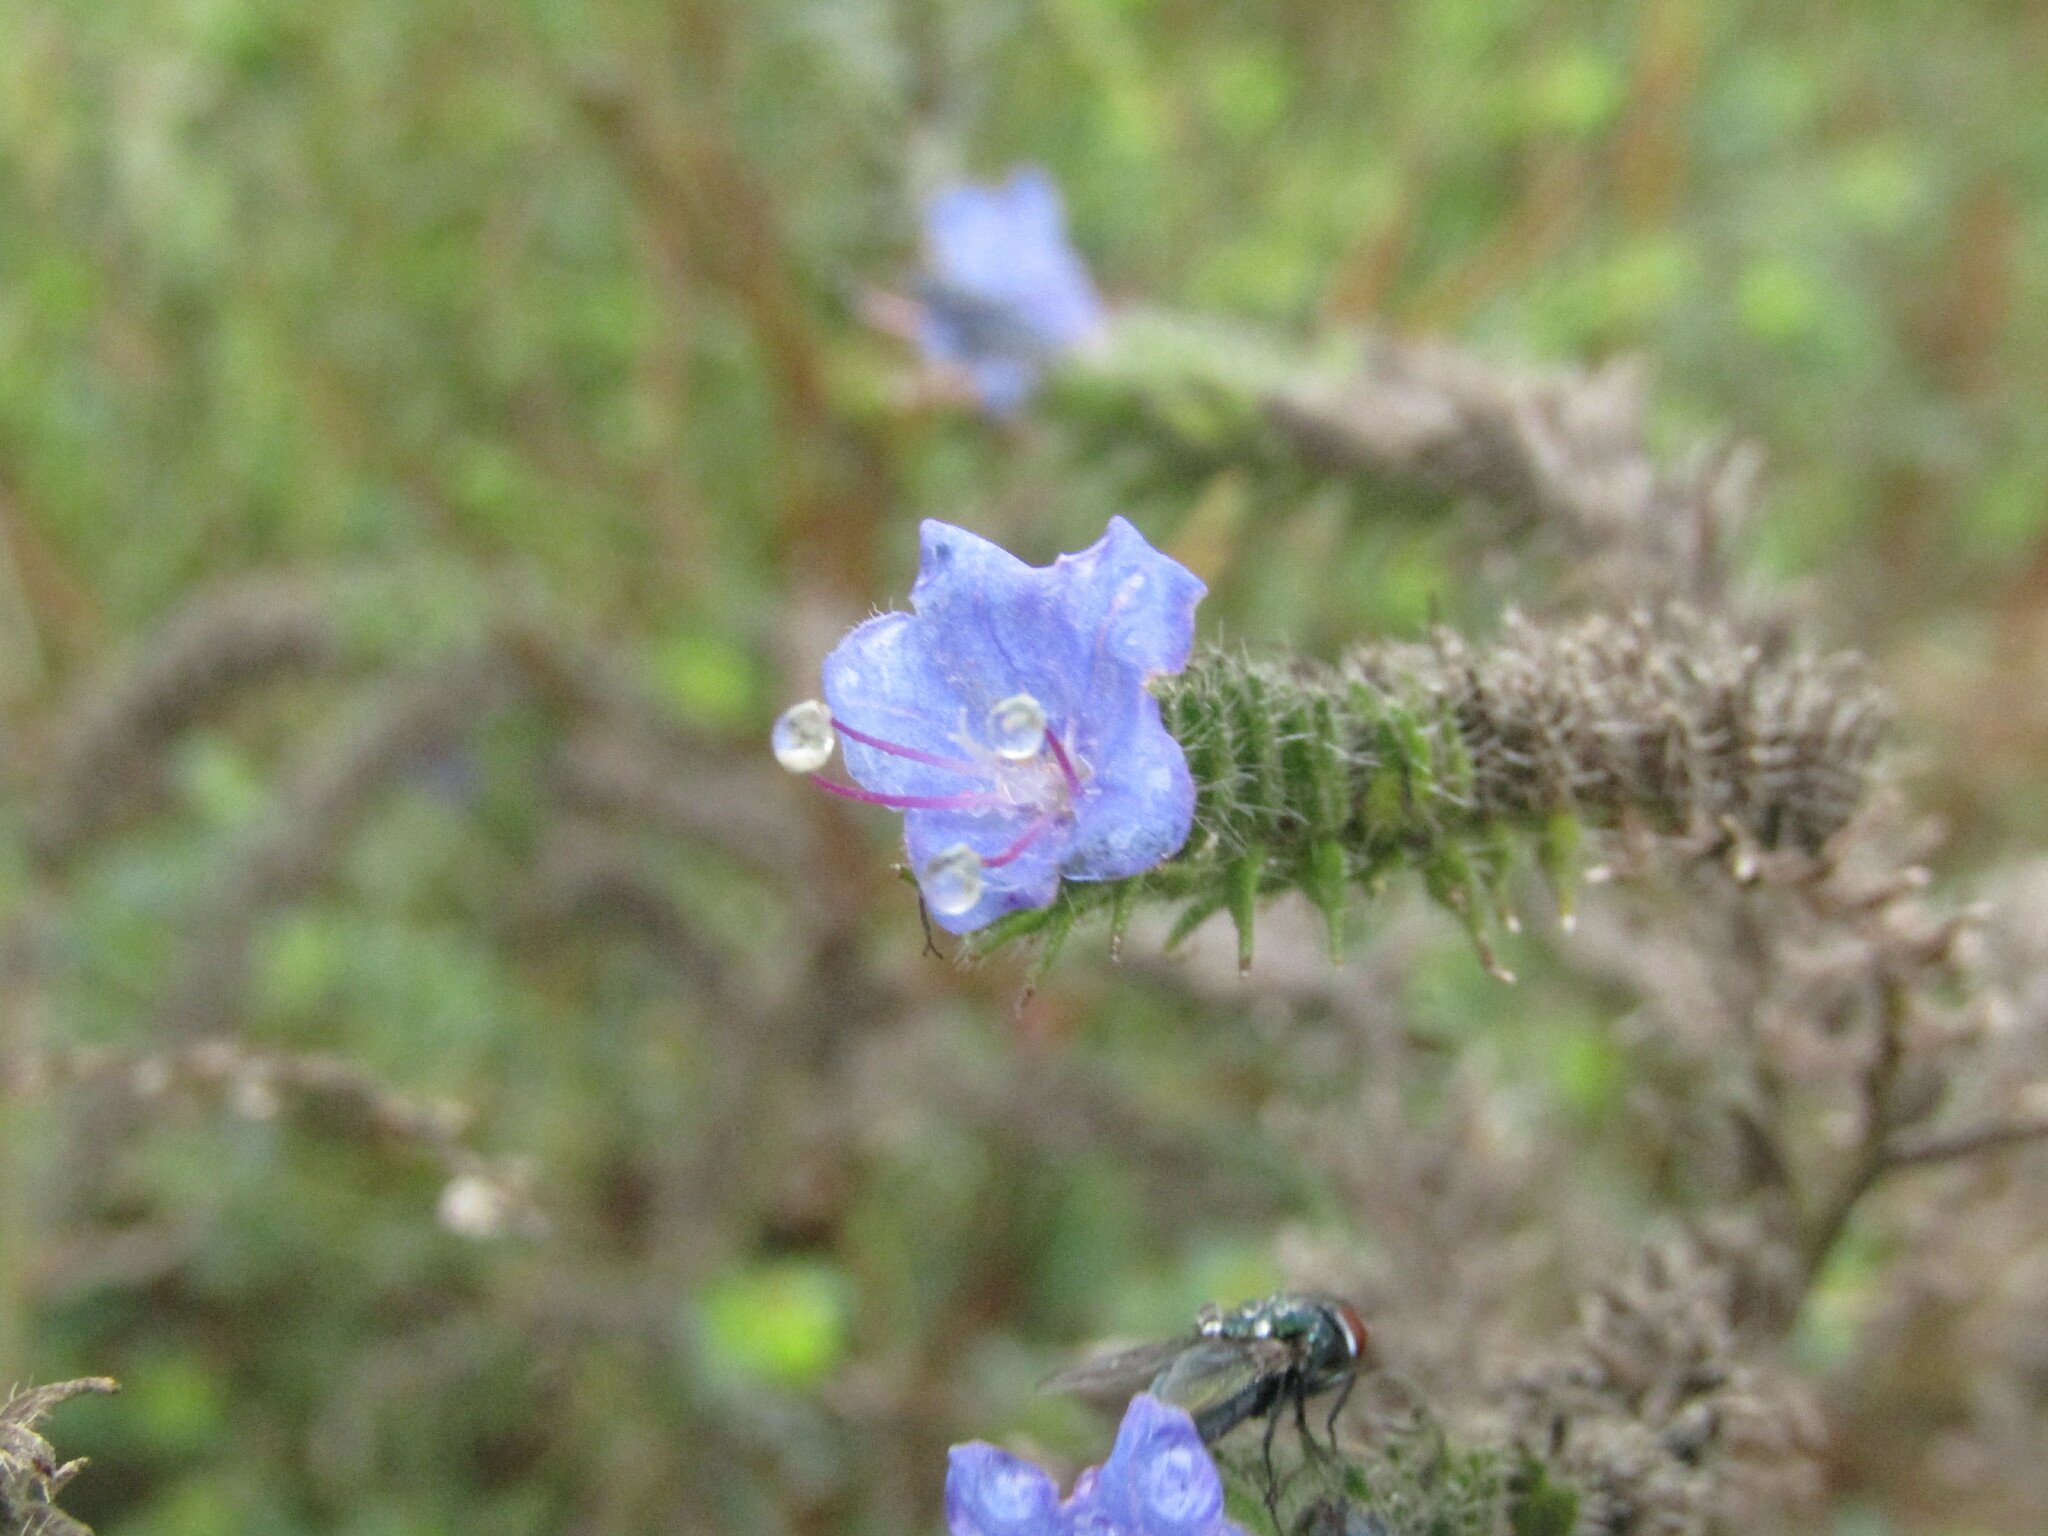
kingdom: Plantae
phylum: Tracheophyta
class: Magnoliopsida
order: Boraginales
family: Boraginaceae
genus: Echium
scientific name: Echium vulgare
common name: Common viper's bugloss
